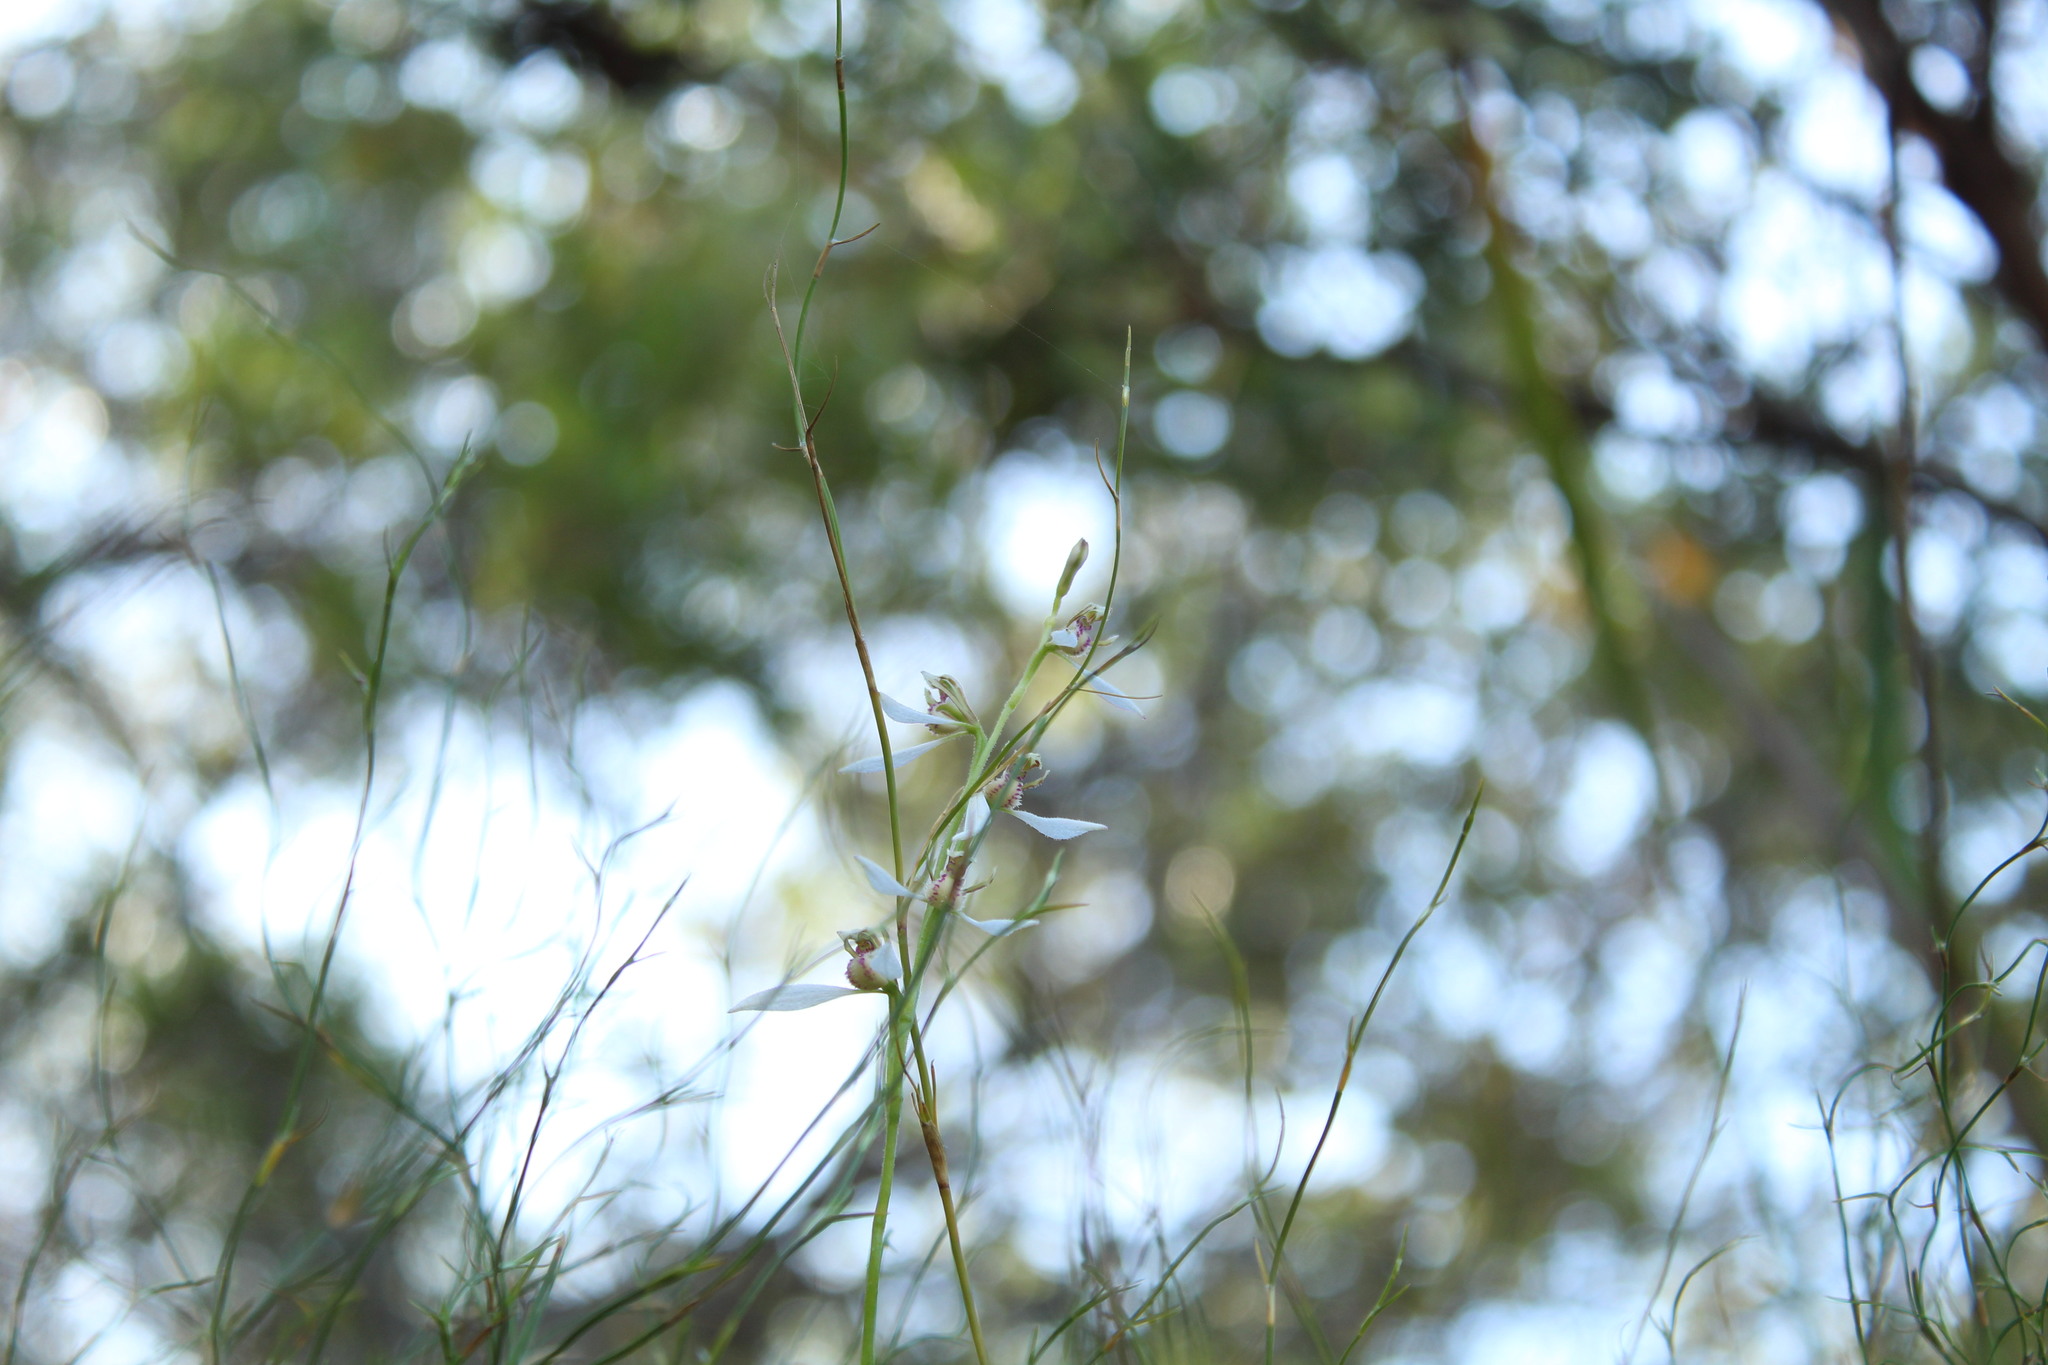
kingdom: Plantae
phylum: Tracheophyta
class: Liliopsida
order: Asparagales
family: Orchidaceae
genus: Eriochilus
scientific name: Eriochilus dilatatus
